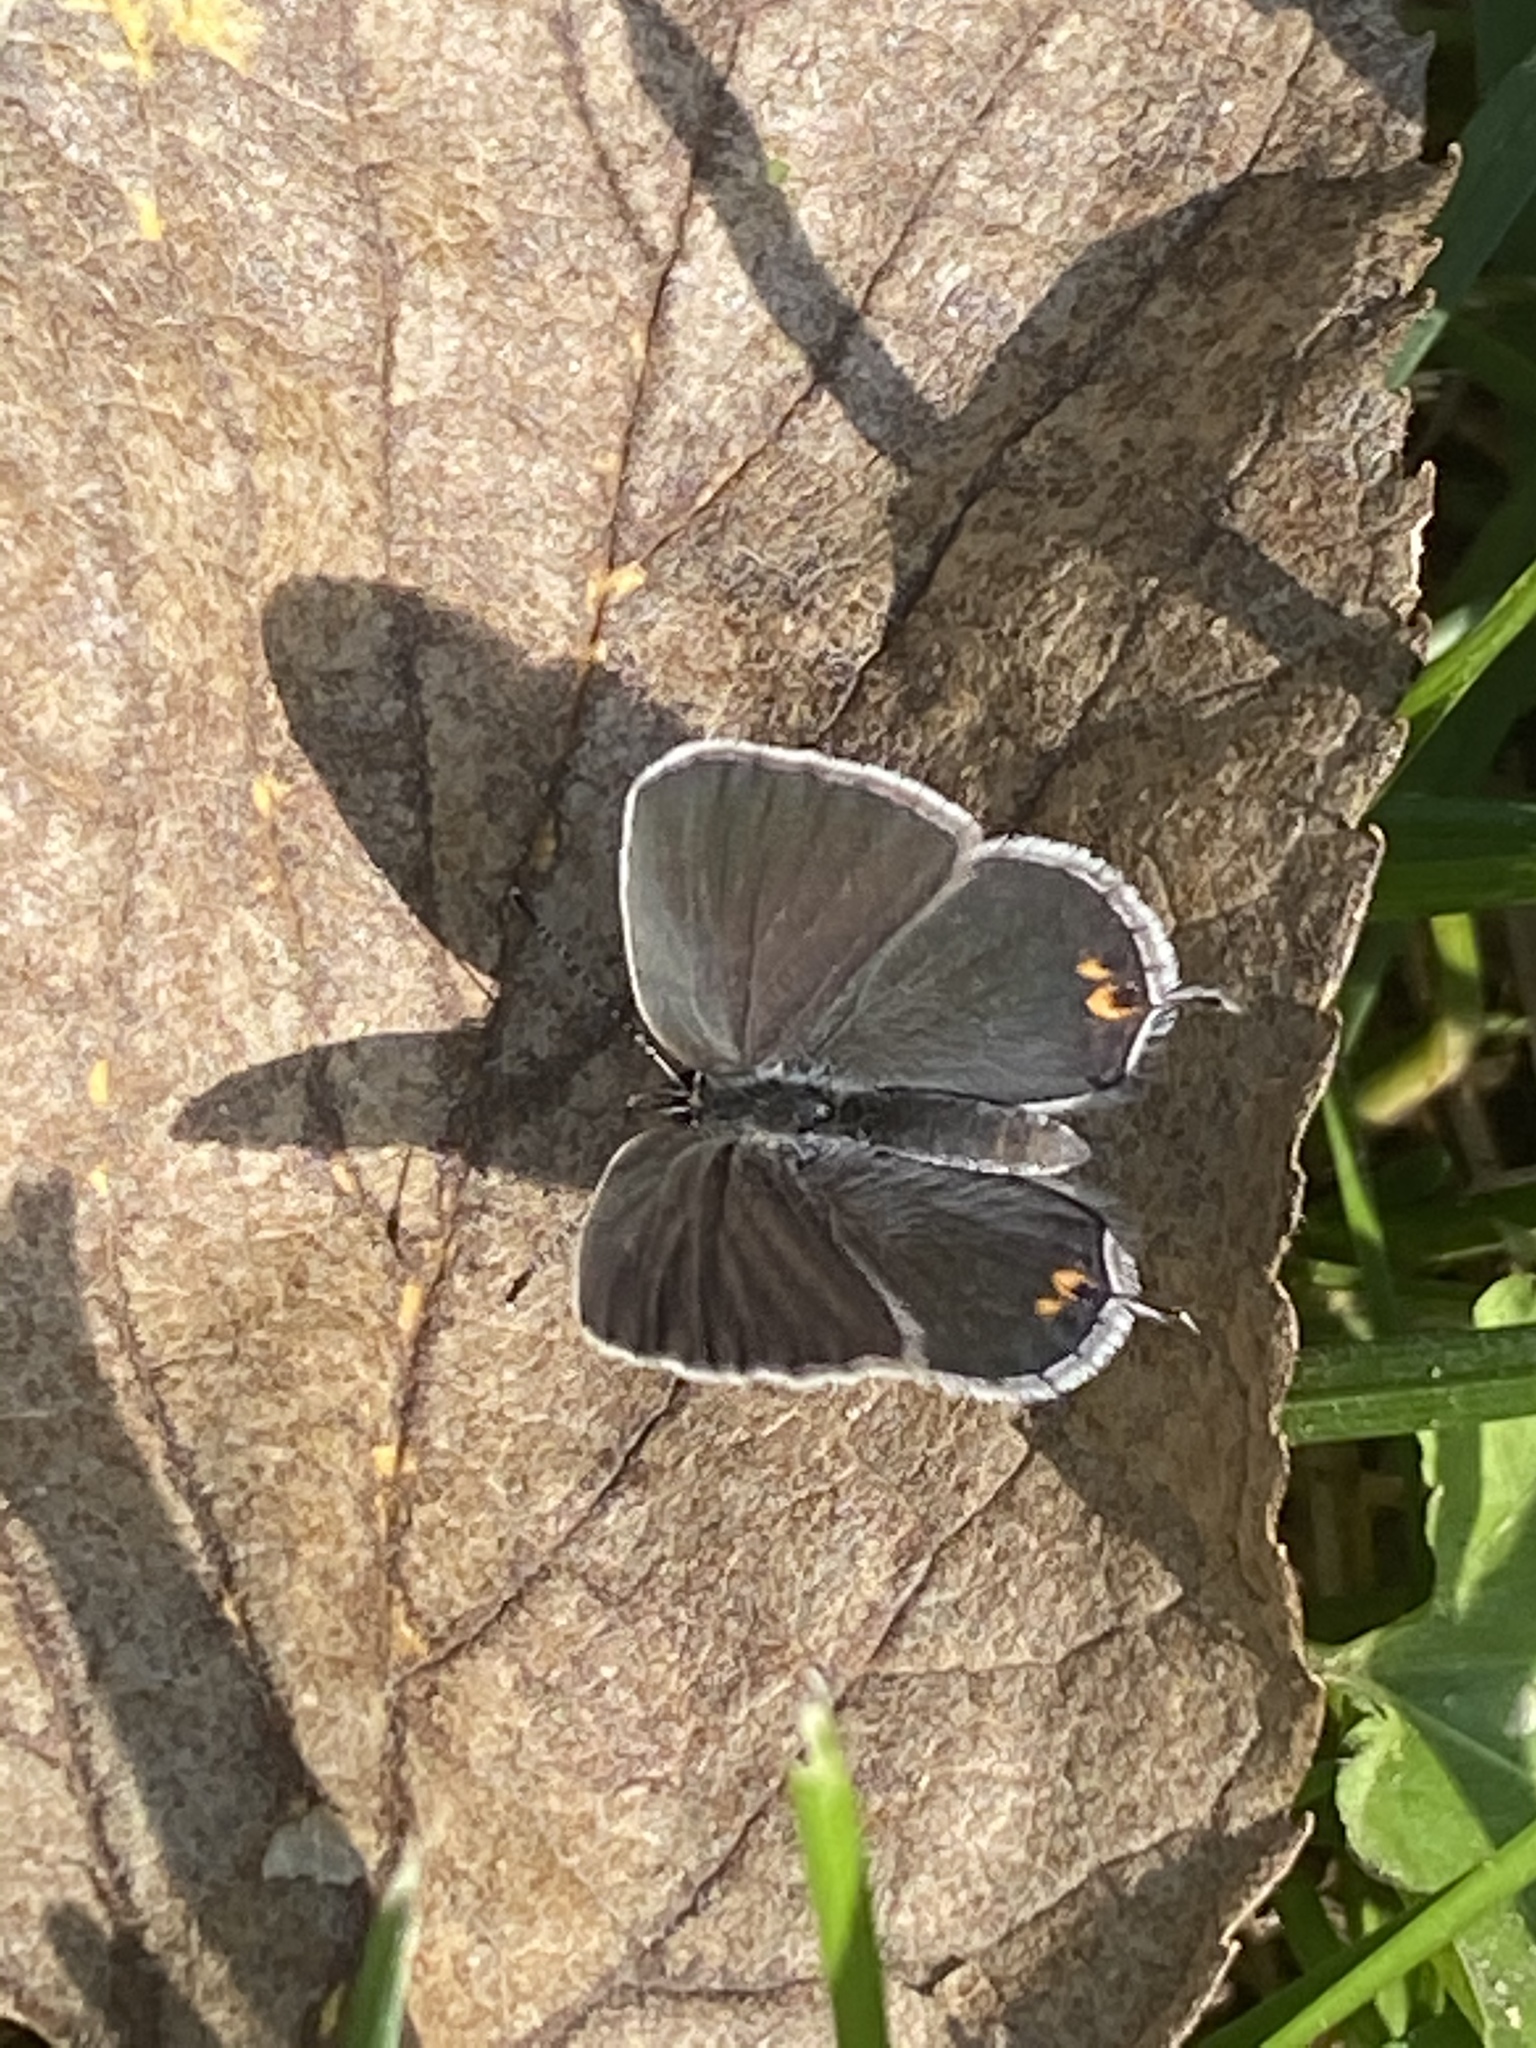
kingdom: Animalia
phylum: Arthropoda
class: Insecta
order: Lepidoptera
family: Lycaenidae
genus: Elkalyce
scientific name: Elkalyce comyntas
